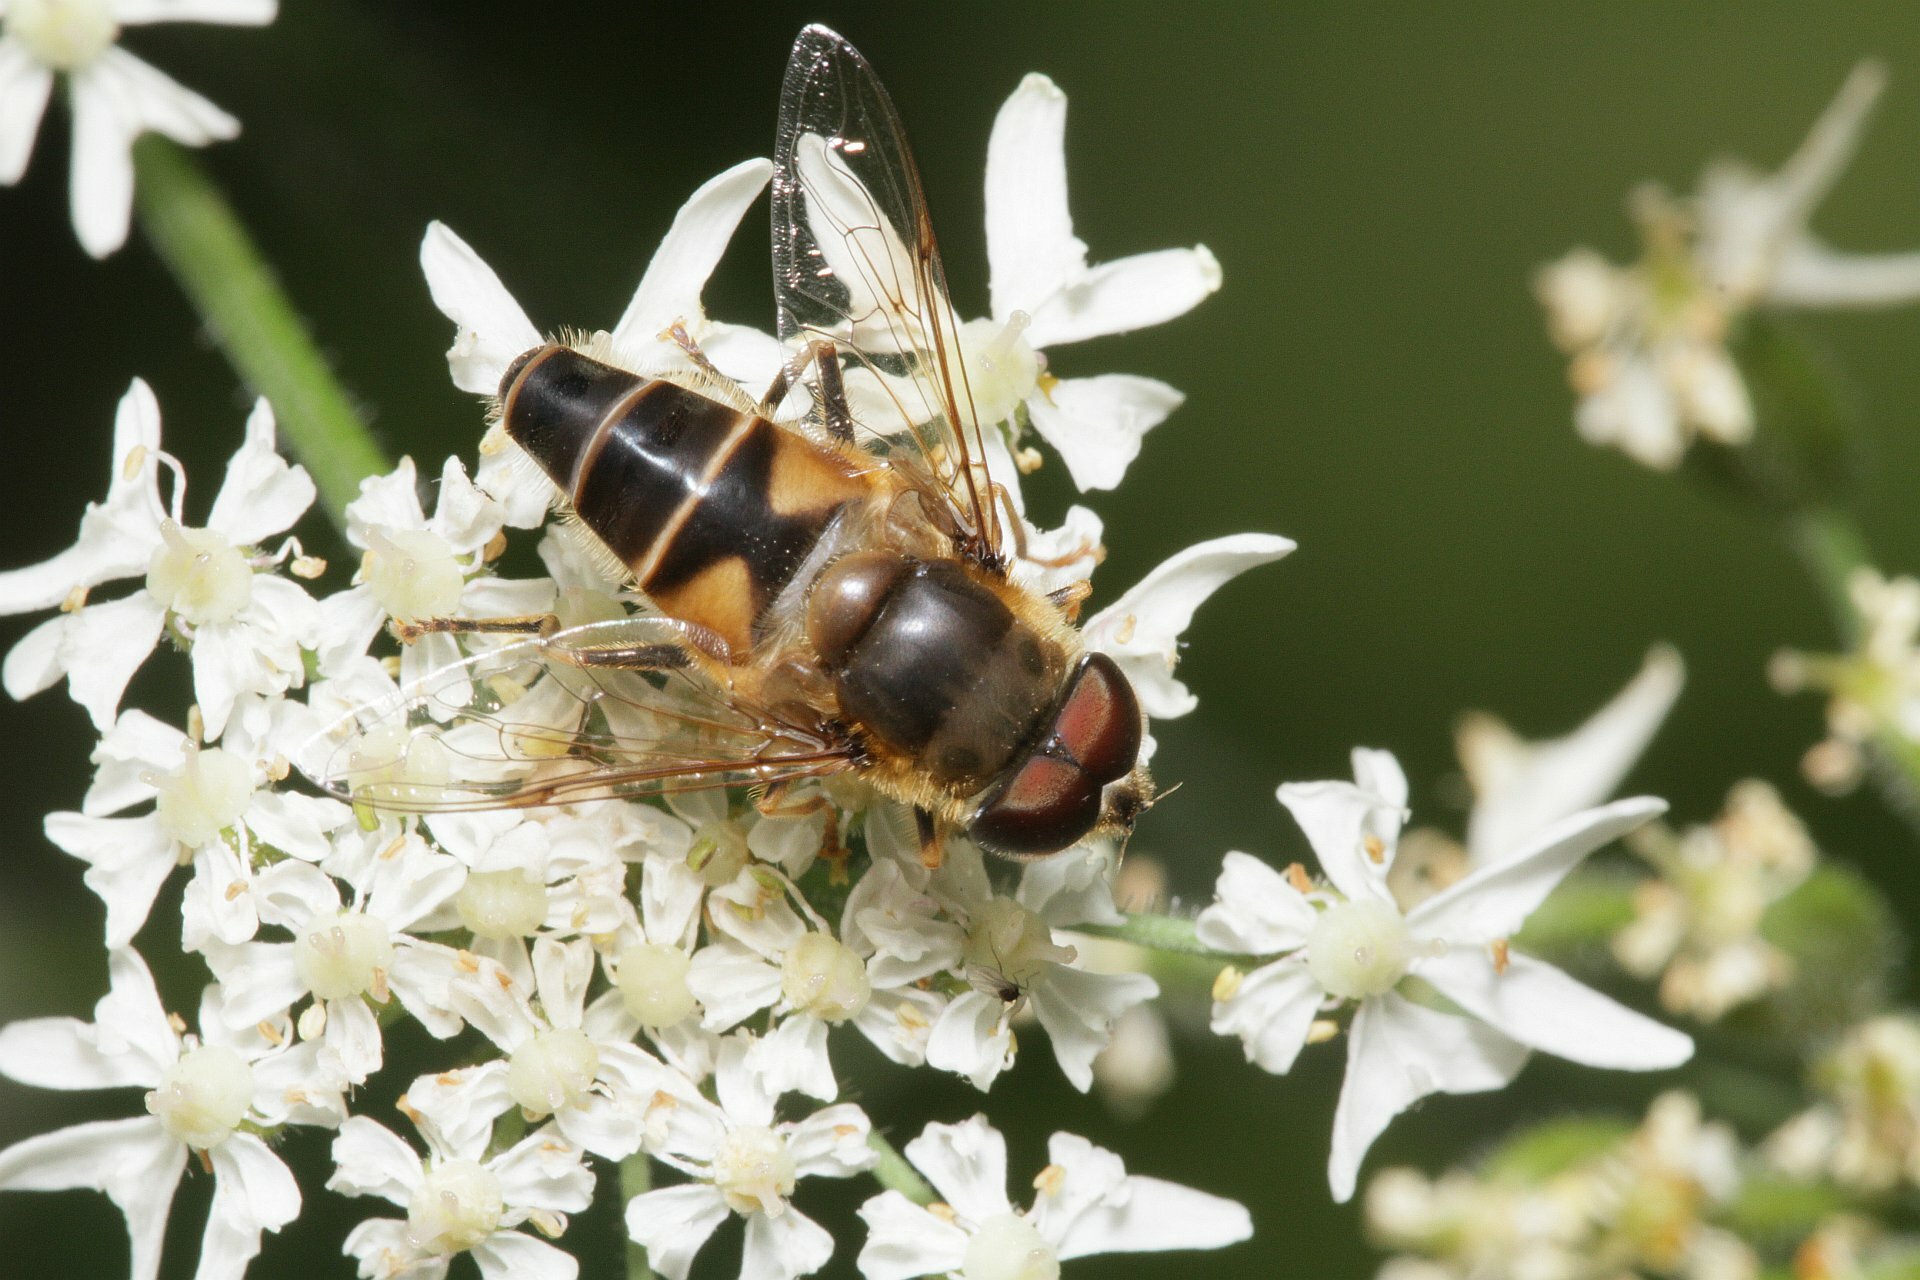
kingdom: Animalia
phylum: Arthropoda
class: Insecta
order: Diptera
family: Syrphidae
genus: Eristalis
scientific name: Eristalis pertinax
